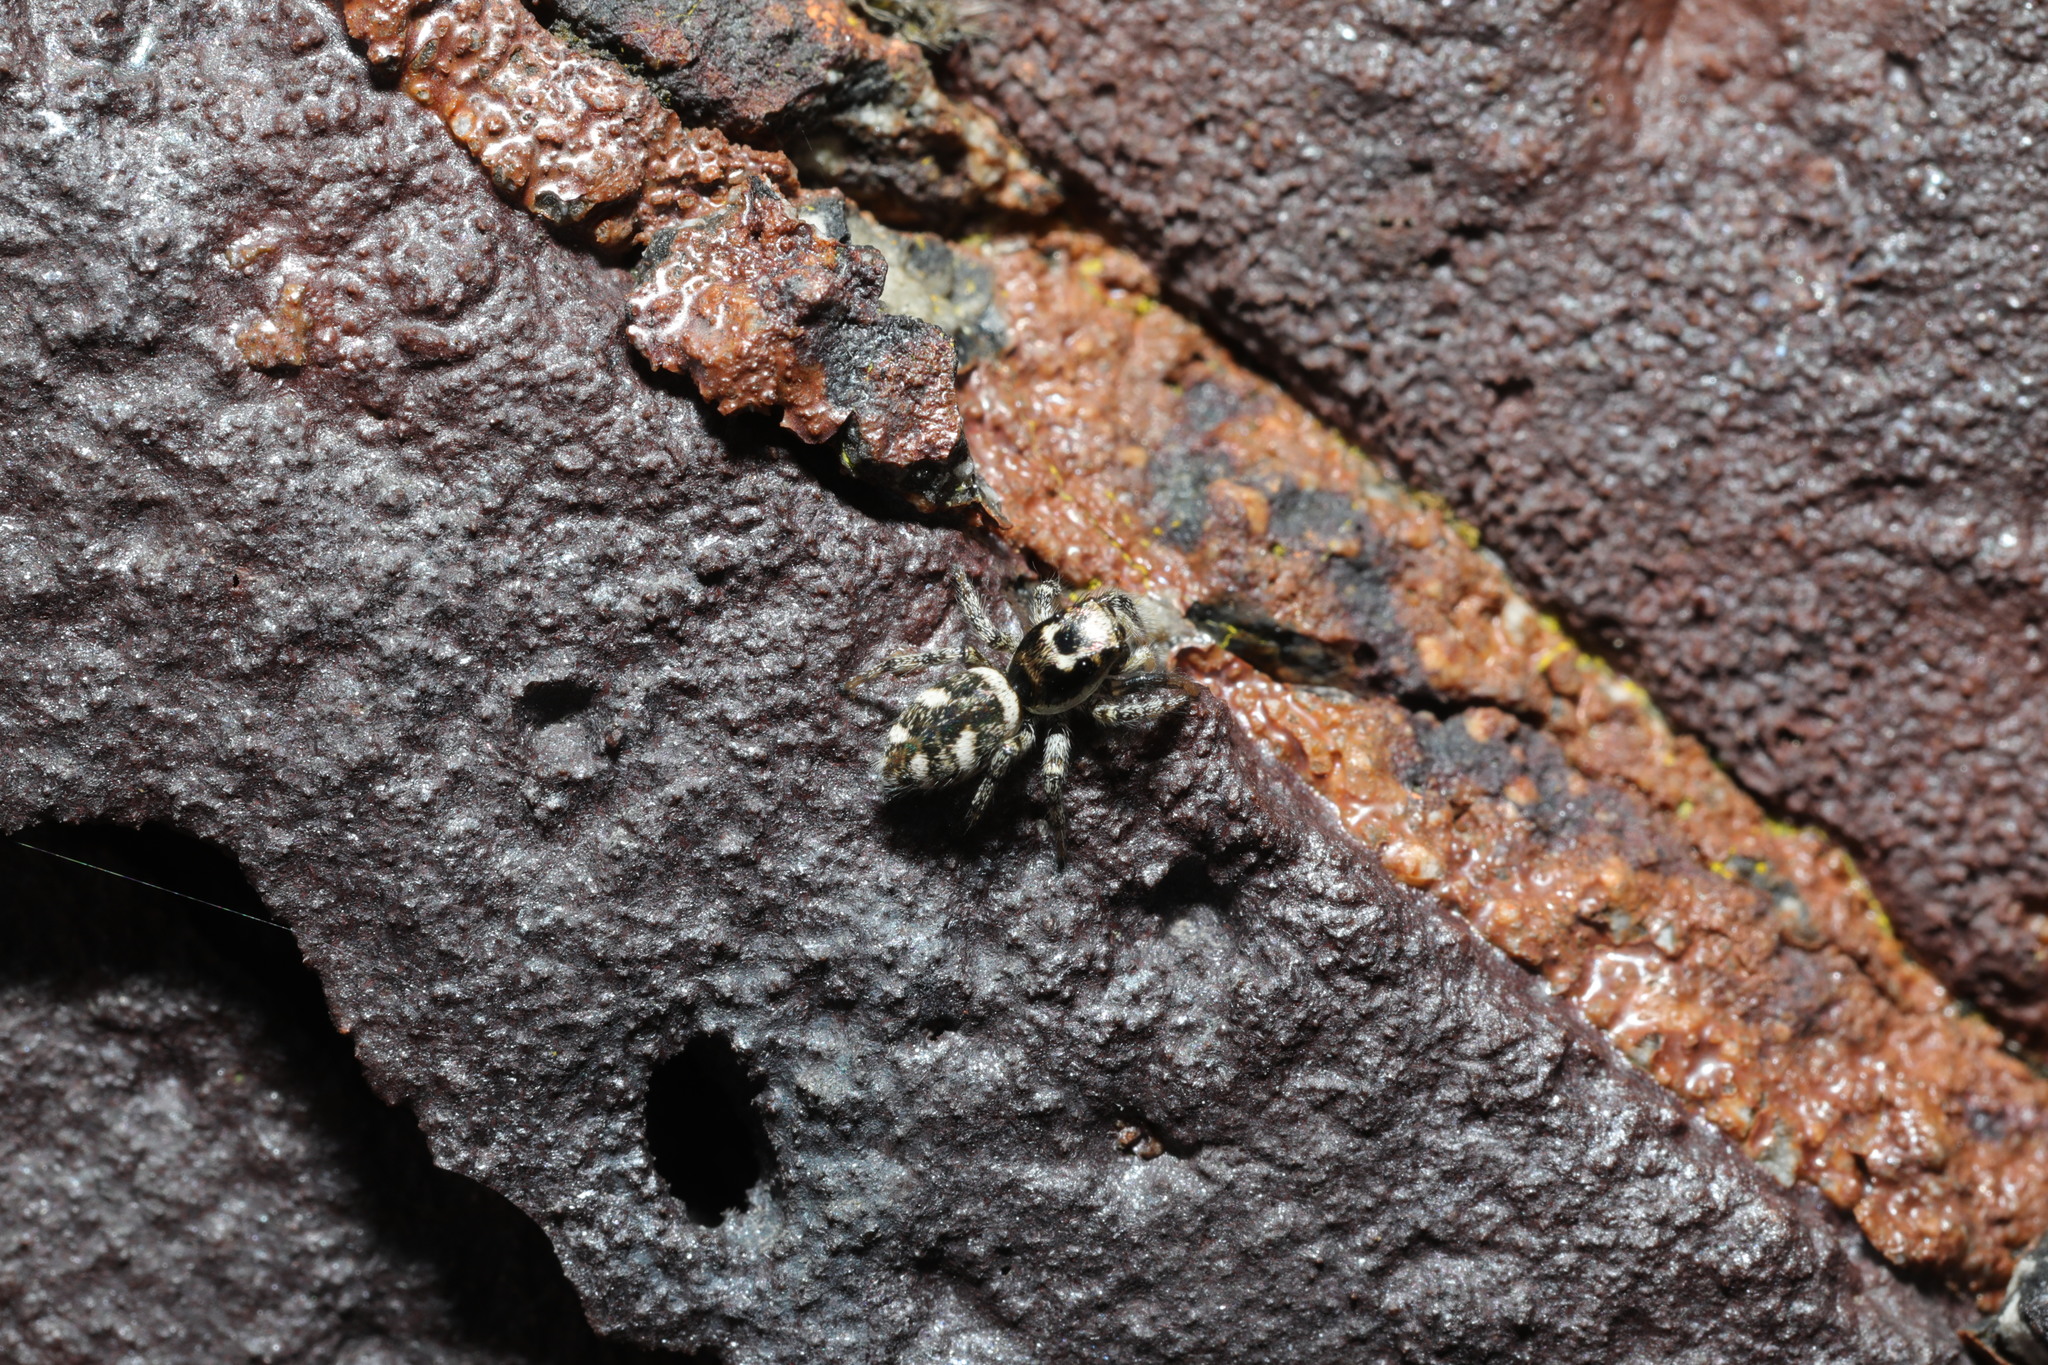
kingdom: Animalia
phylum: Arthropoda
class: Arachnida
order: Araneae
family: Salticidae
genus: Salticus
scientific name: Salticus scenicus
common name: Zebra jumper
